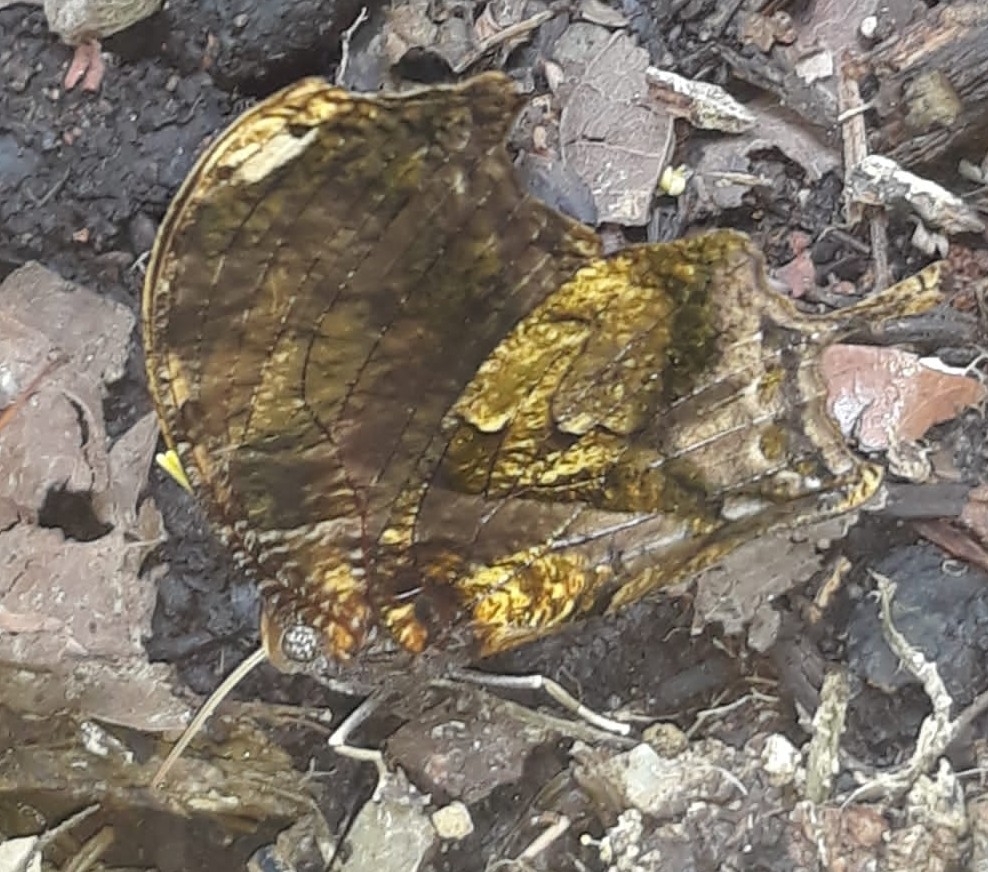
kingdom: Animalia
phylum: Arthropoda
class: Insecta
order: Lepidoptera
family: Nymphalidae
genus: Consul
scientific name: Consul fabius
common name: Tiger leafwing
